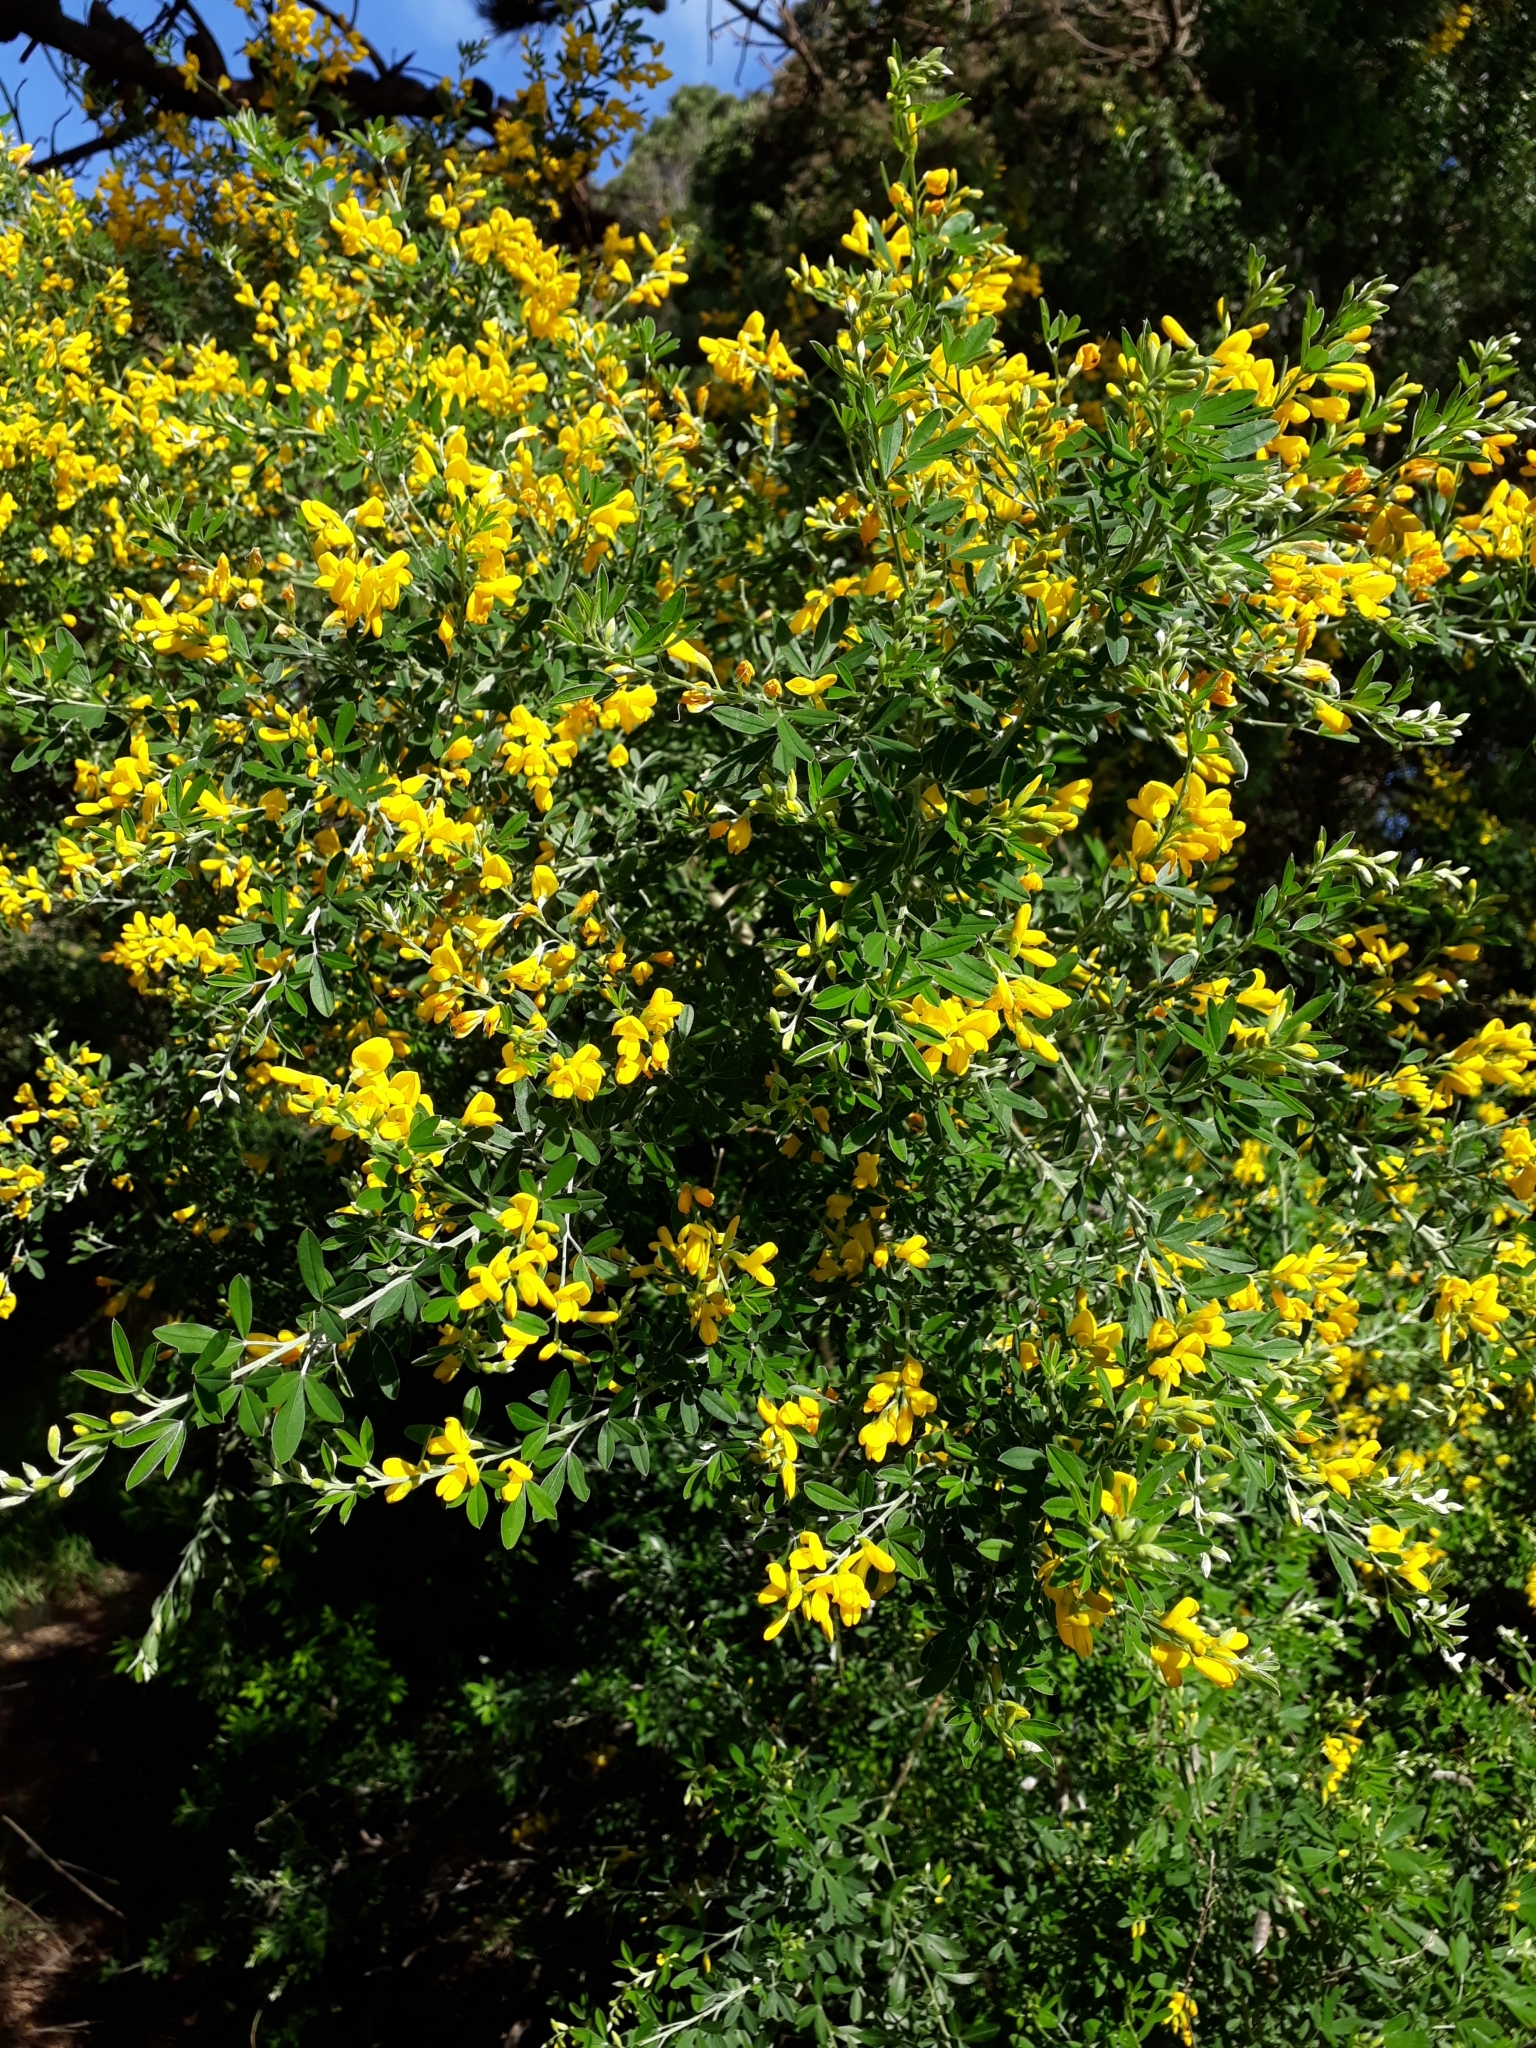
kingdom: Plantae
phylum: Tracheophyta
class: Magnoliopsida
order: Fabales
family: Fabaceae
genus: Genista
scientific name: Genista monspessulana
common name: Montpellier broom
